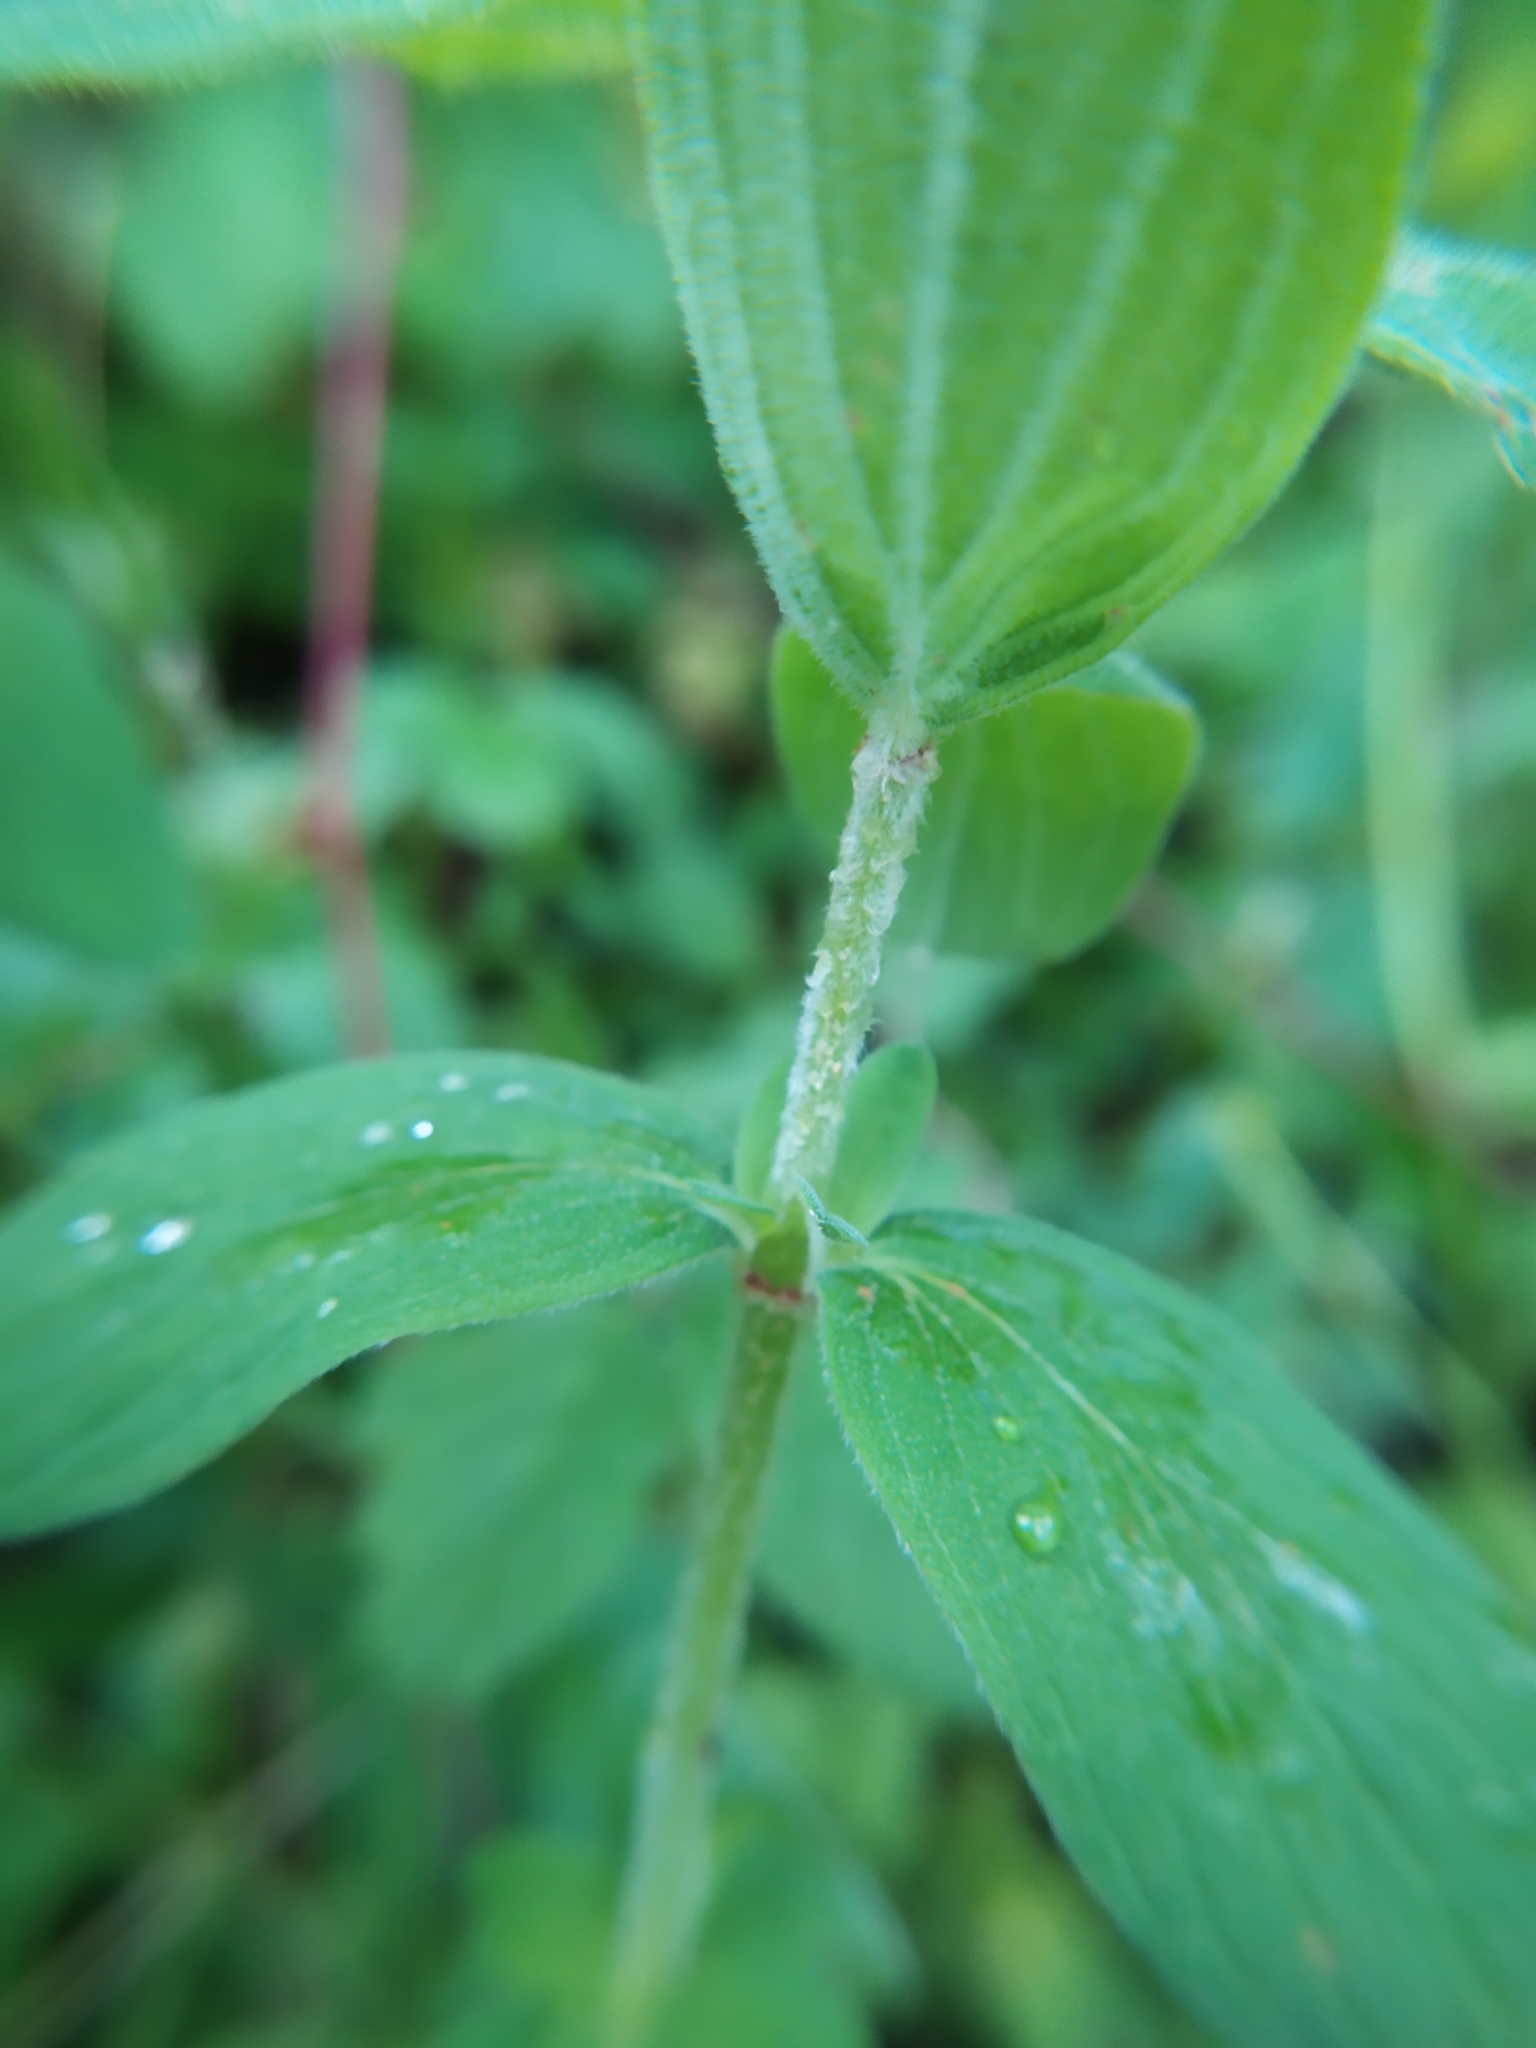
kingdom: Plantae
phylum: Tracheophyta
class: Magnoliopsida
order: Malpighiales
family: Hypericaceae
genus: Hypericum
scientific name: Hypericum hirsutum
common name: Hairy st. john's-wort
